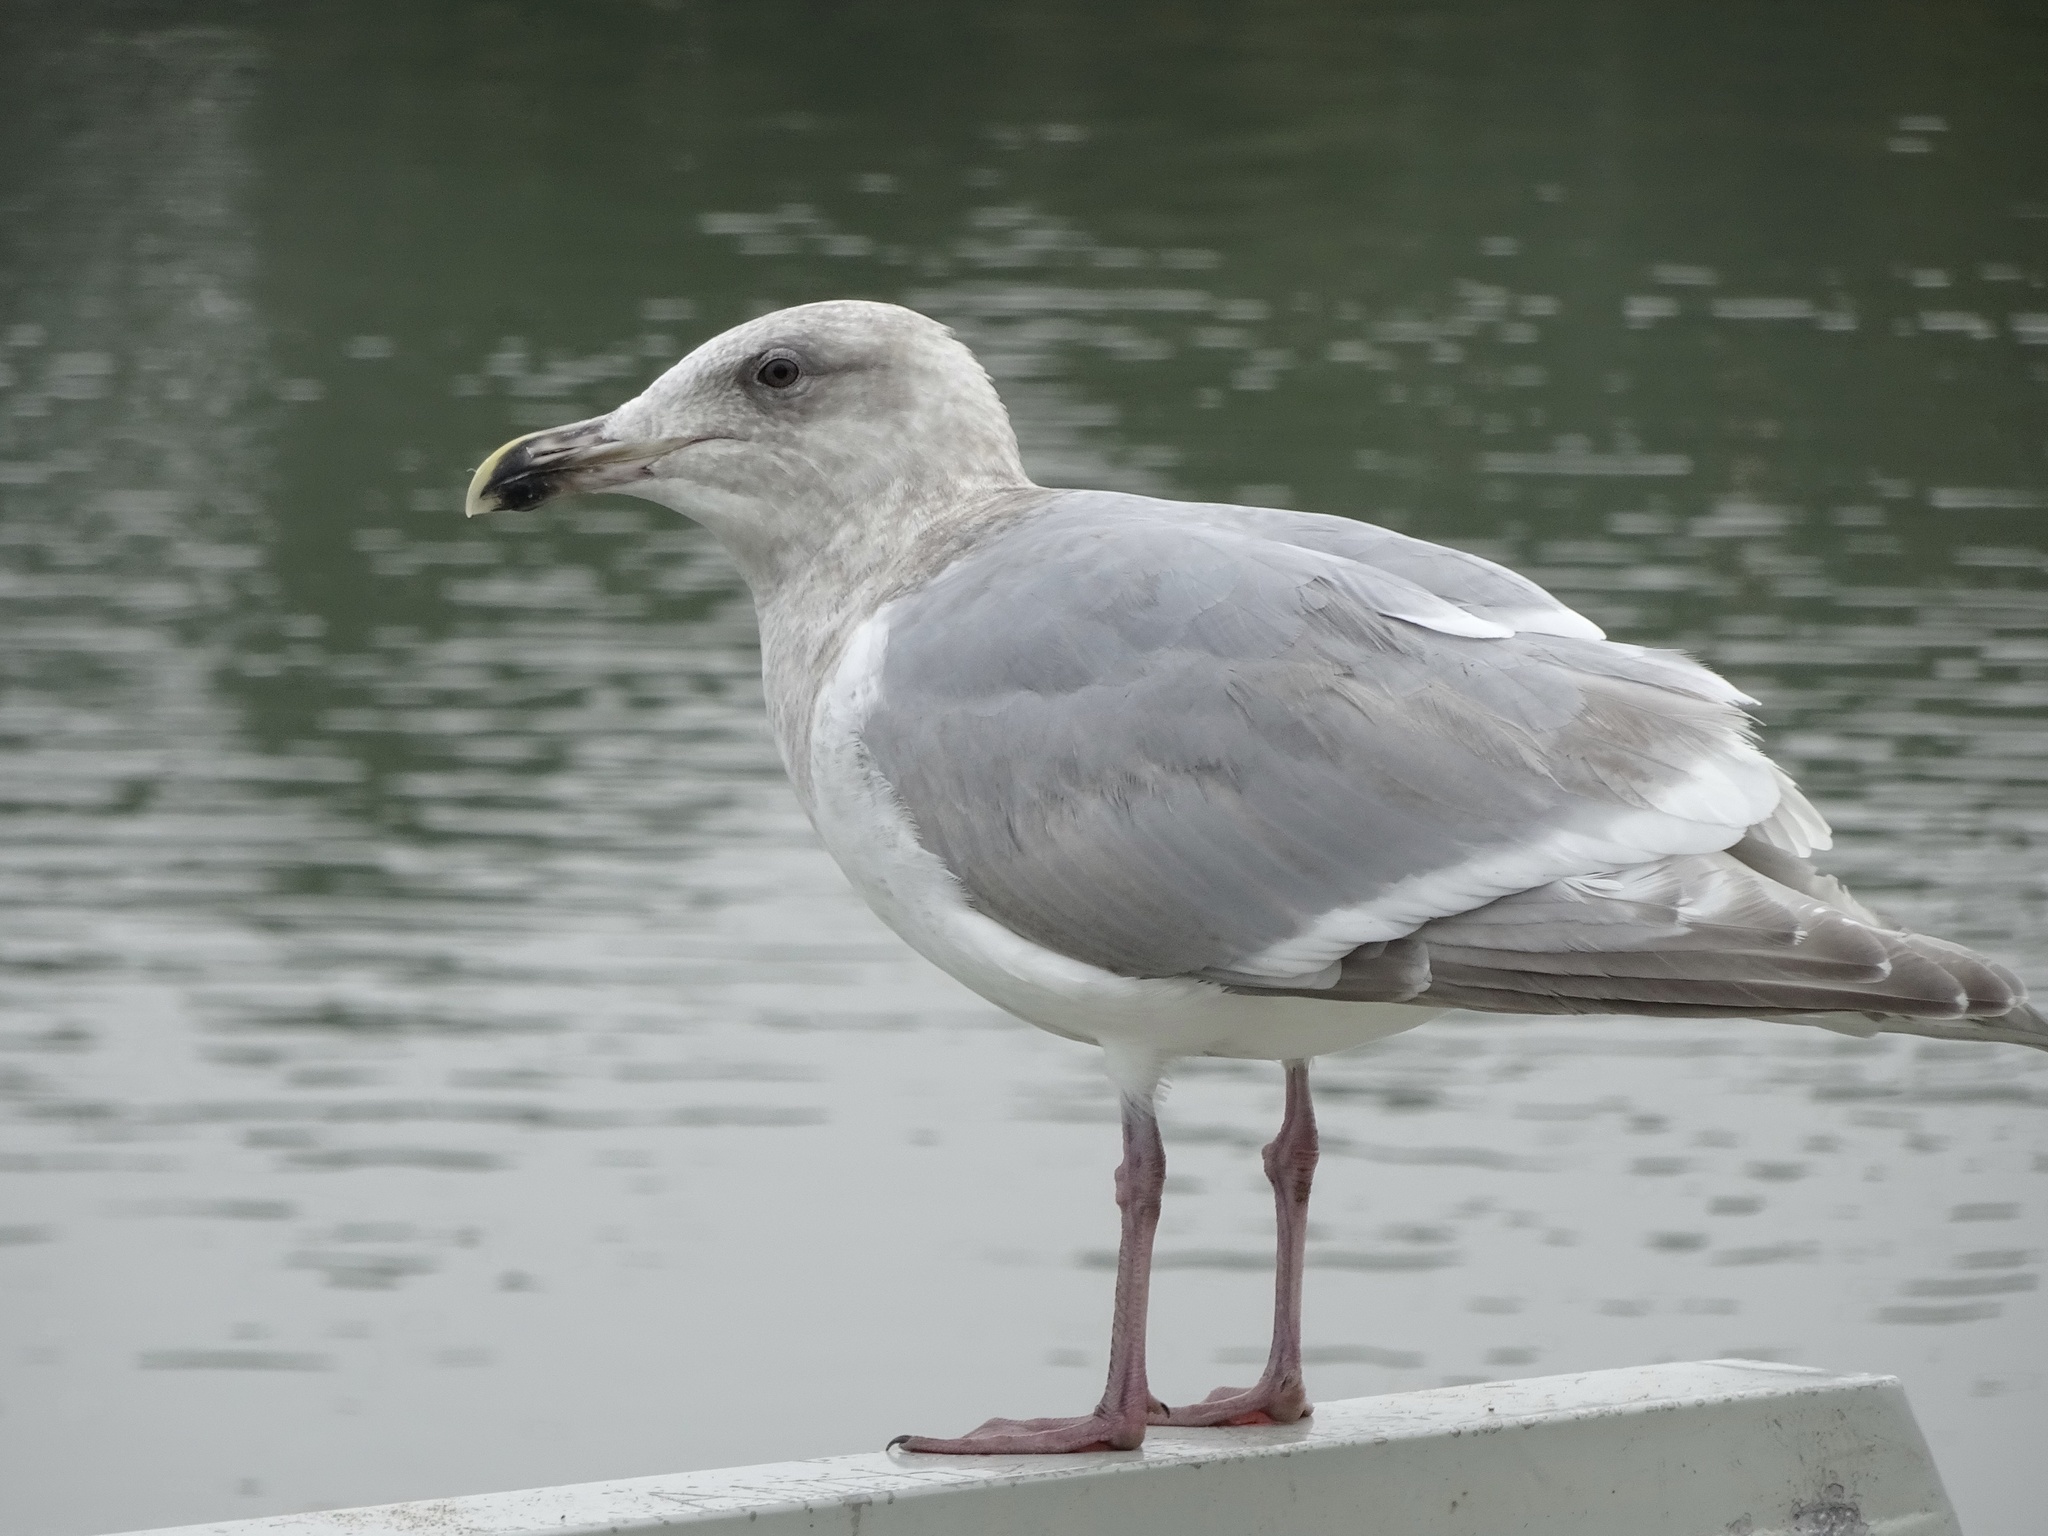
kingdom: Animalia
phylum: Chordata
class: Aves
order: Charadriiformes
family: Laridae
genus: Larus
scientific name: Larus
